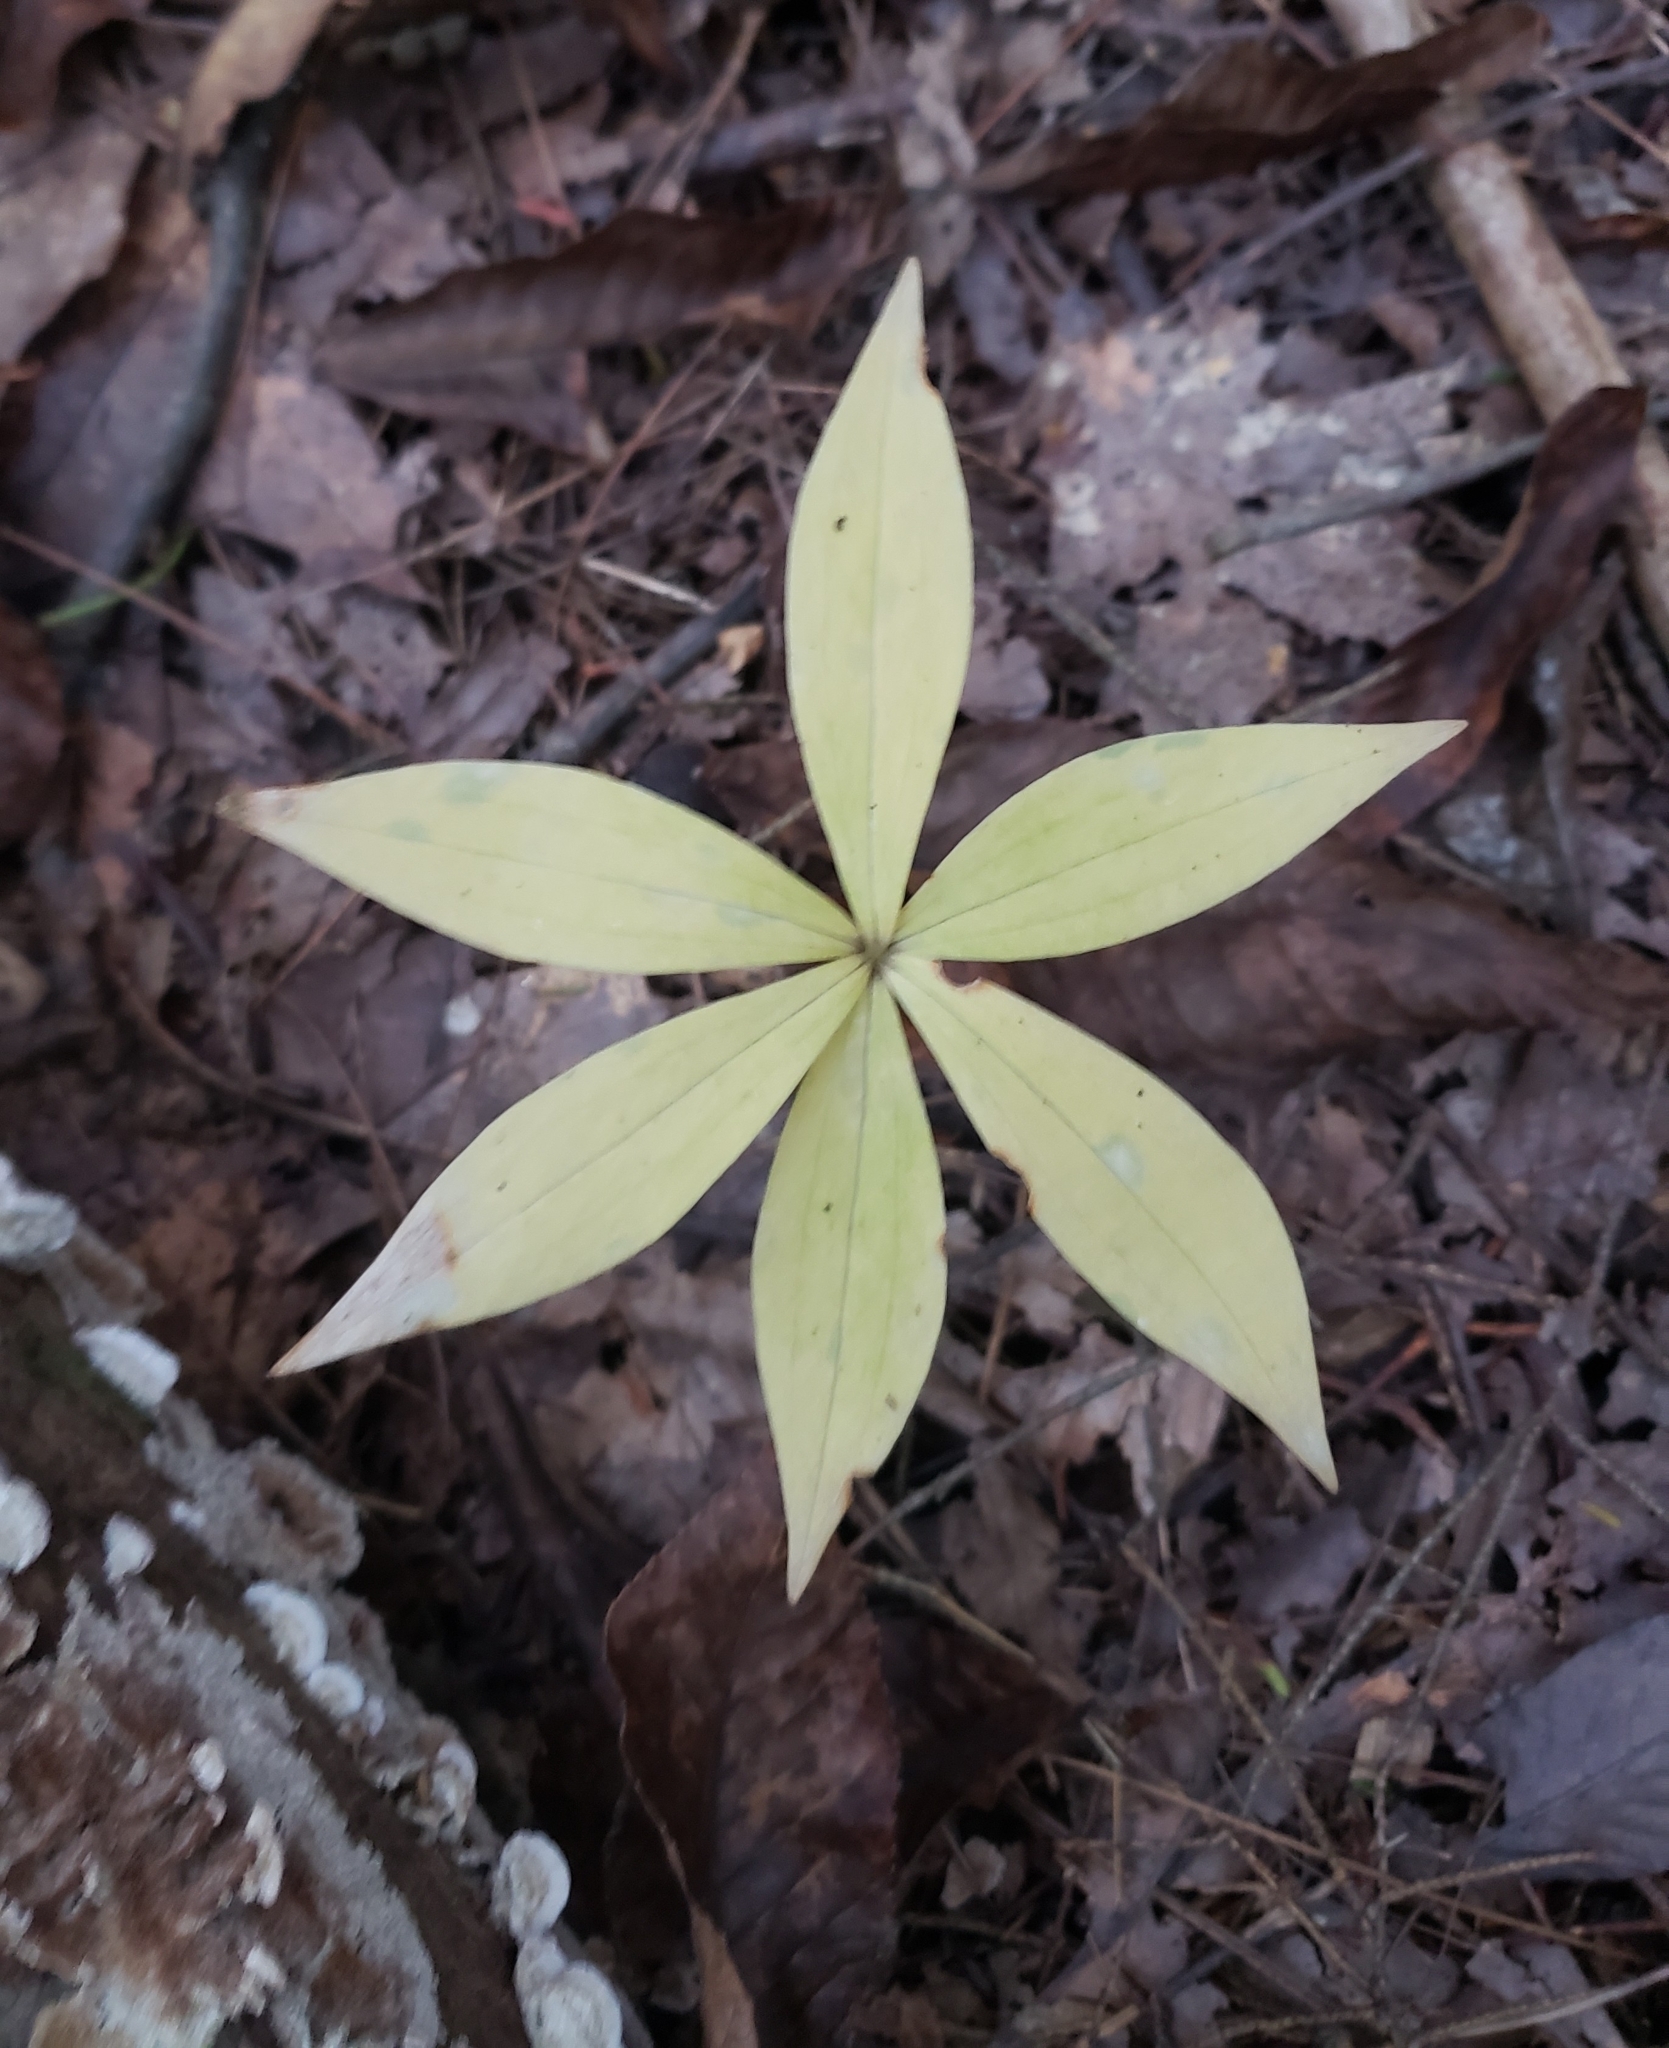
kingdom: Plantae
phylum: Tracheophyta
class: Liliopsida
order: Liliales
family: Liliaceae
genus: Medeola
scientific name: Medeola virginiana
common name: Indian cucumber-root
